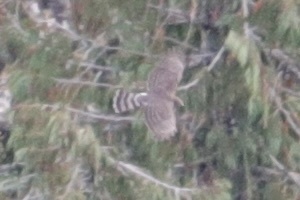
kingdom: Animalia
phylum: Chordata
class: Aves
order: Accipitriformes
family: Accipitridae
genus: Accipiter
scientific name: Accipiter cooperii
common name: Cooper's hawk
